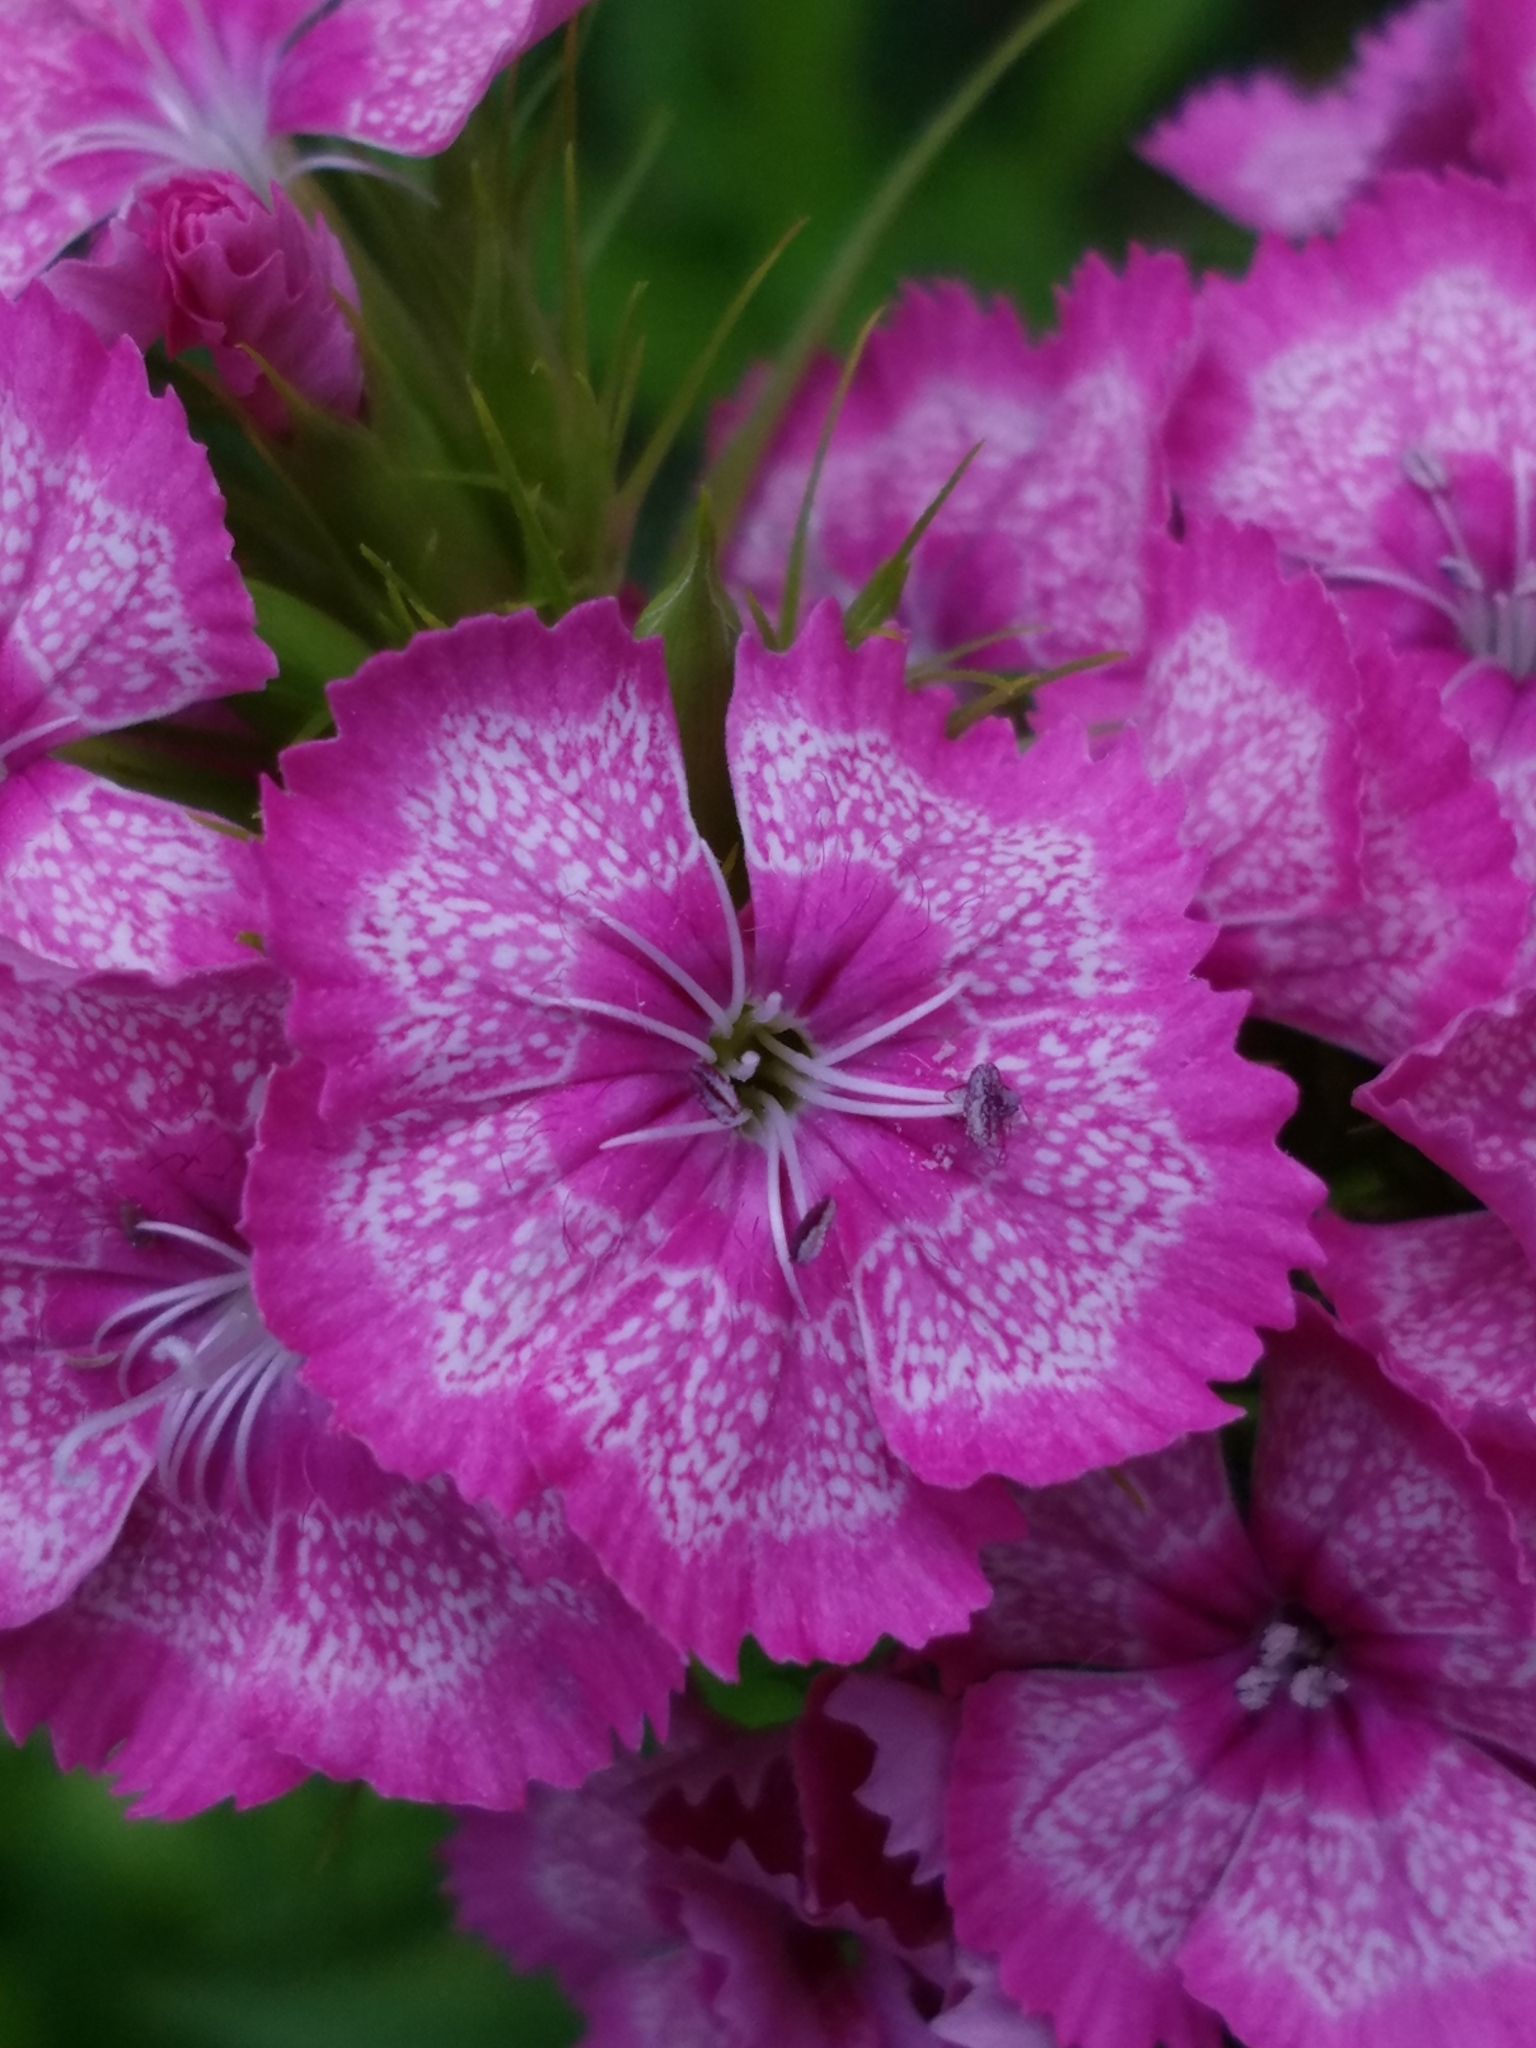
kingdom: Plantae
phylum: Tracheophyta
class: Magnoliopsida
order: Caryophyllales
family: Caryophyllaceae
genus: Dianthus
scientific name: Dianthus barbatus
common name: Sweet-william
